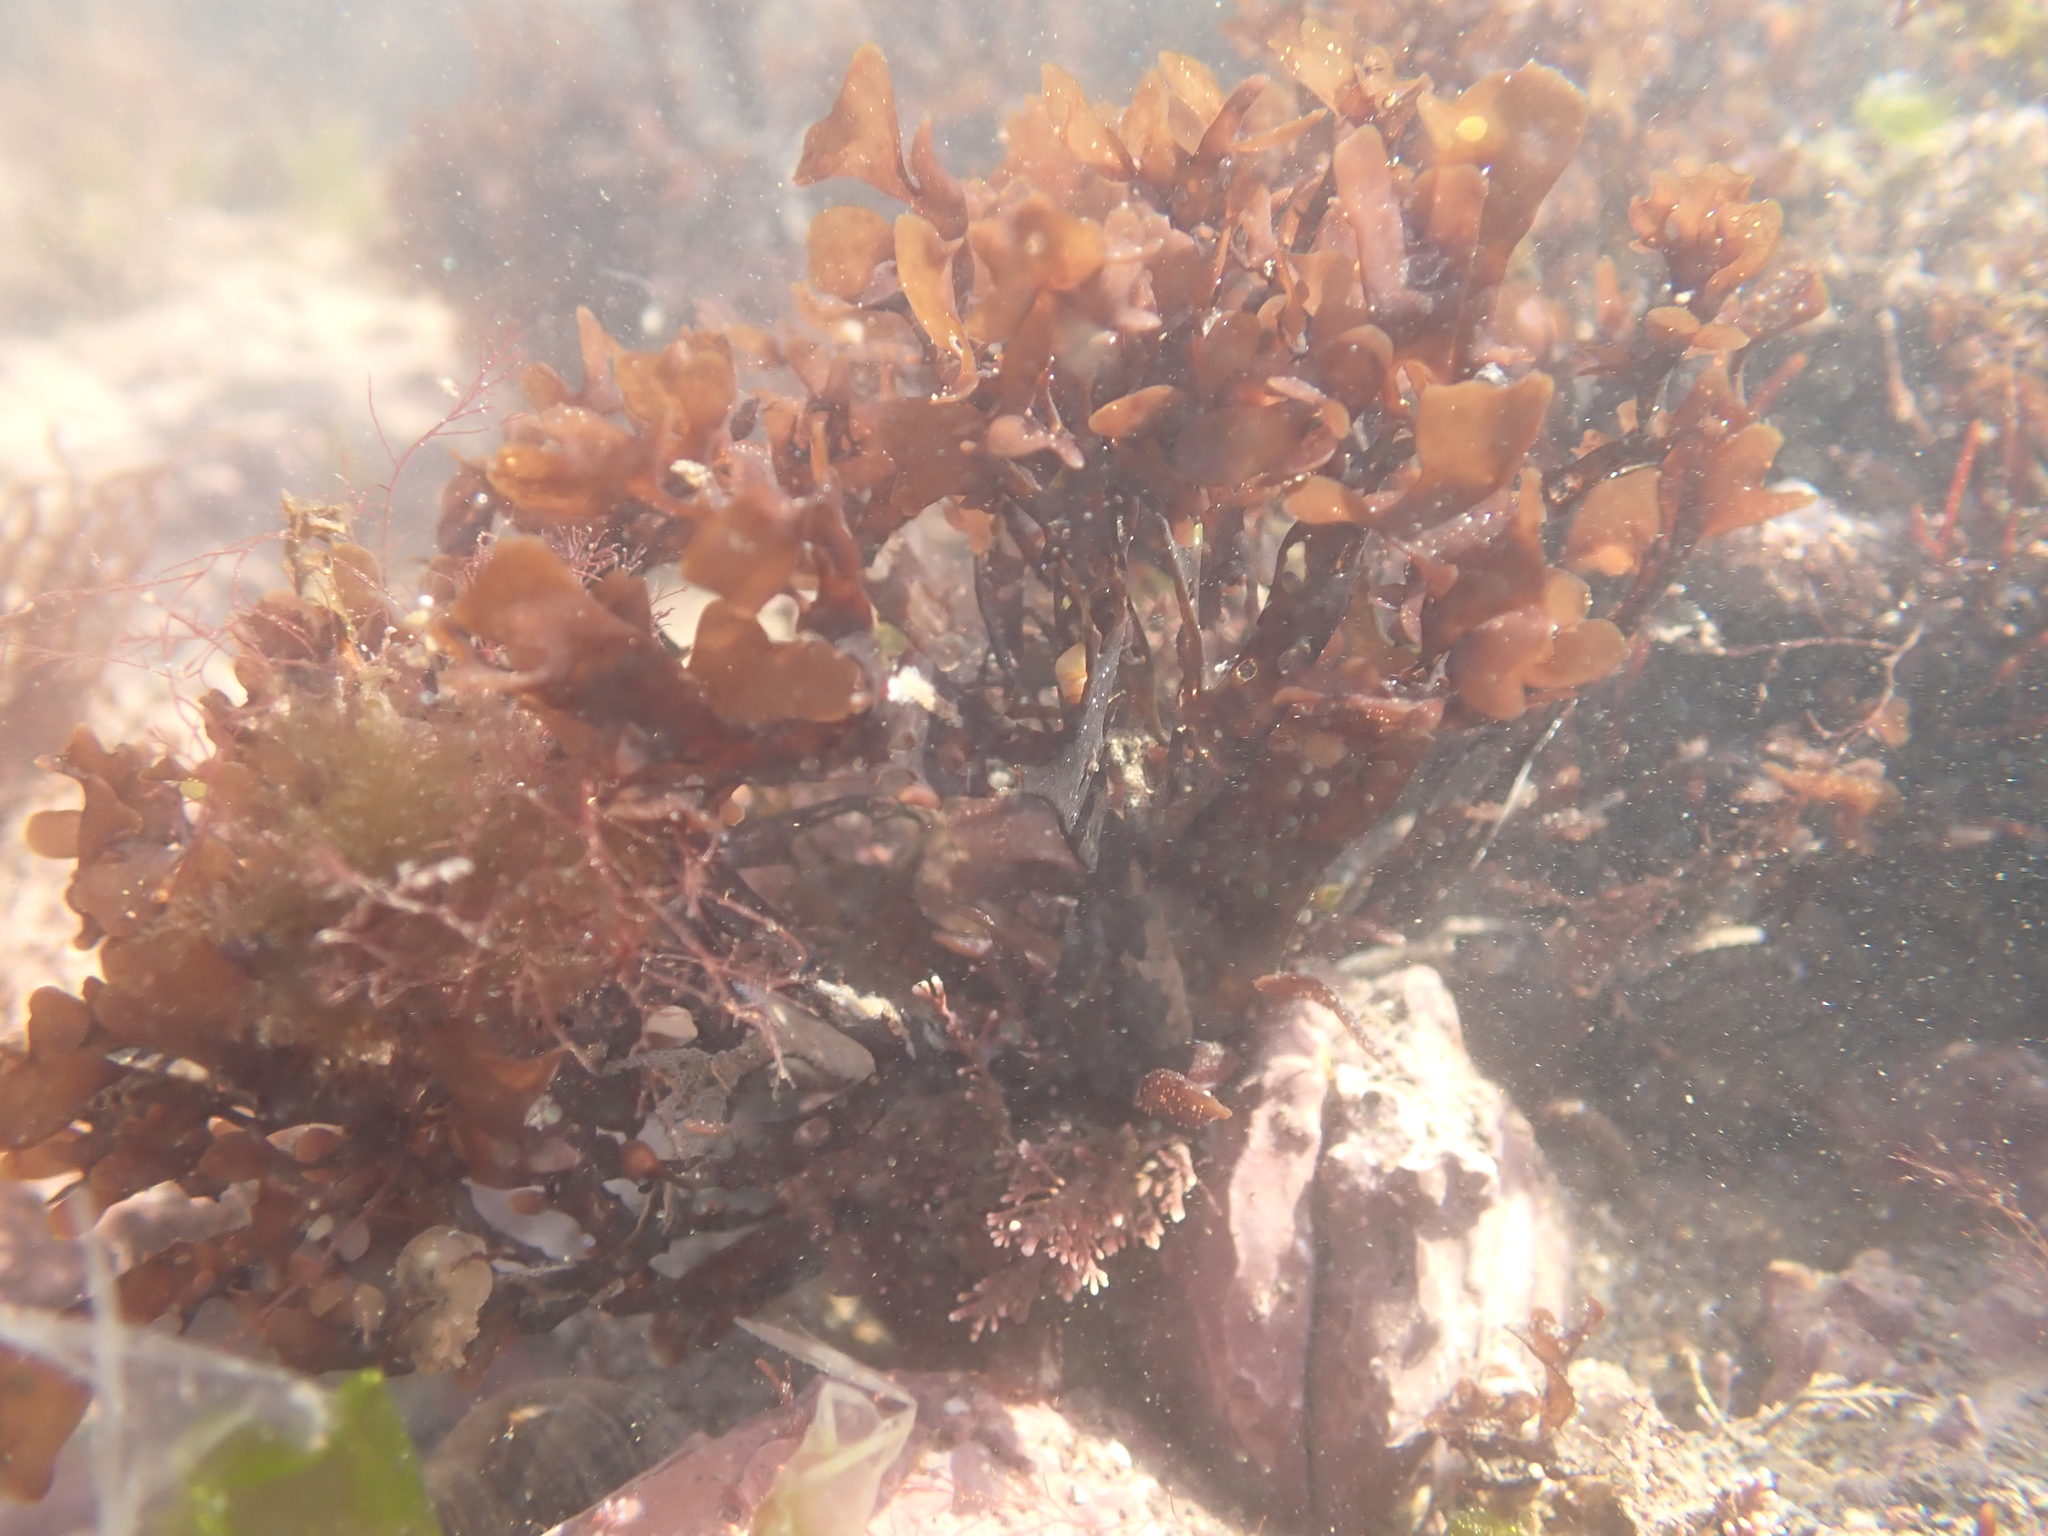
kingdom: Plantae
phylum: Rhodophyta
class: Florideophyceae
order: Gigartinales
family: Gigartinaceae
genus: Chondrus
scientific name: Chondrus crispus
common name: Carrageen
